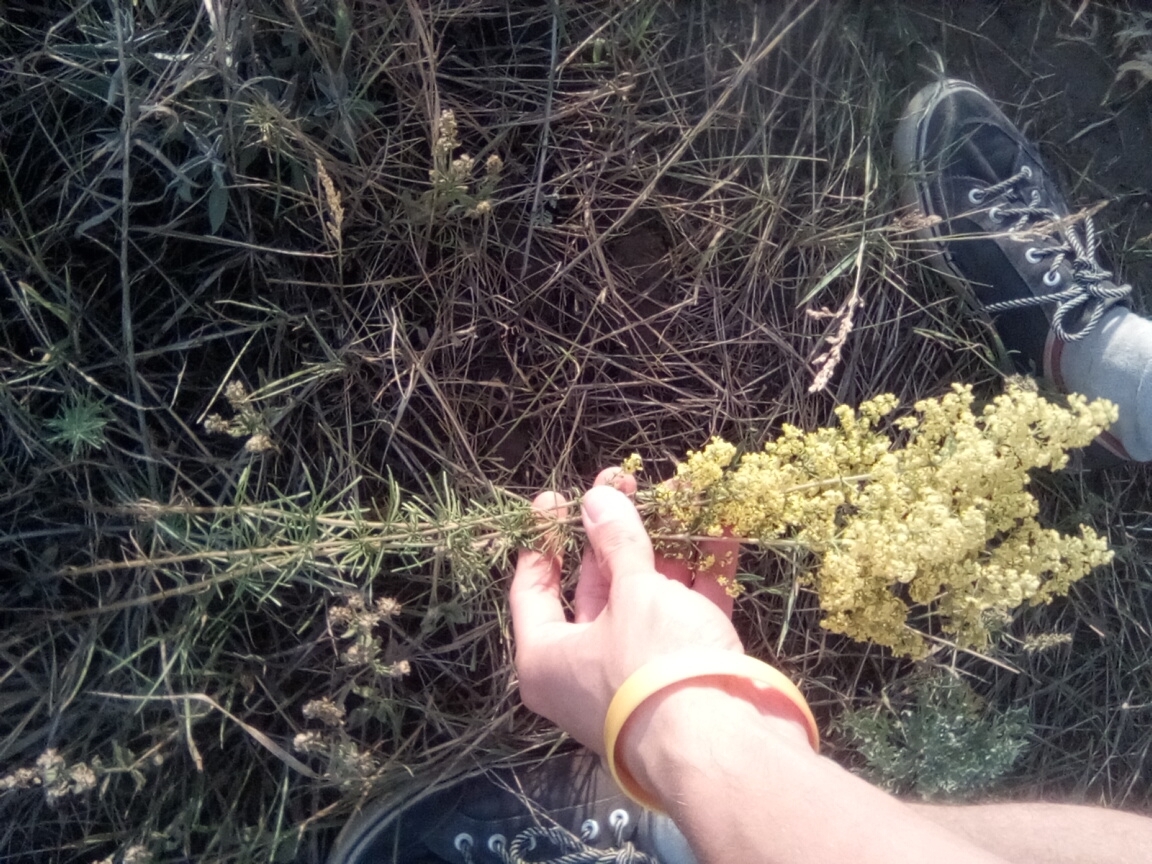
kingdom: Plantae
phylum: Tracheophyta
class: Magnoliopsida
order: Gentianales
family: Rubiaceae
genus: Galium
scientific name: Galium verum
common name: Lady's bedstraw
